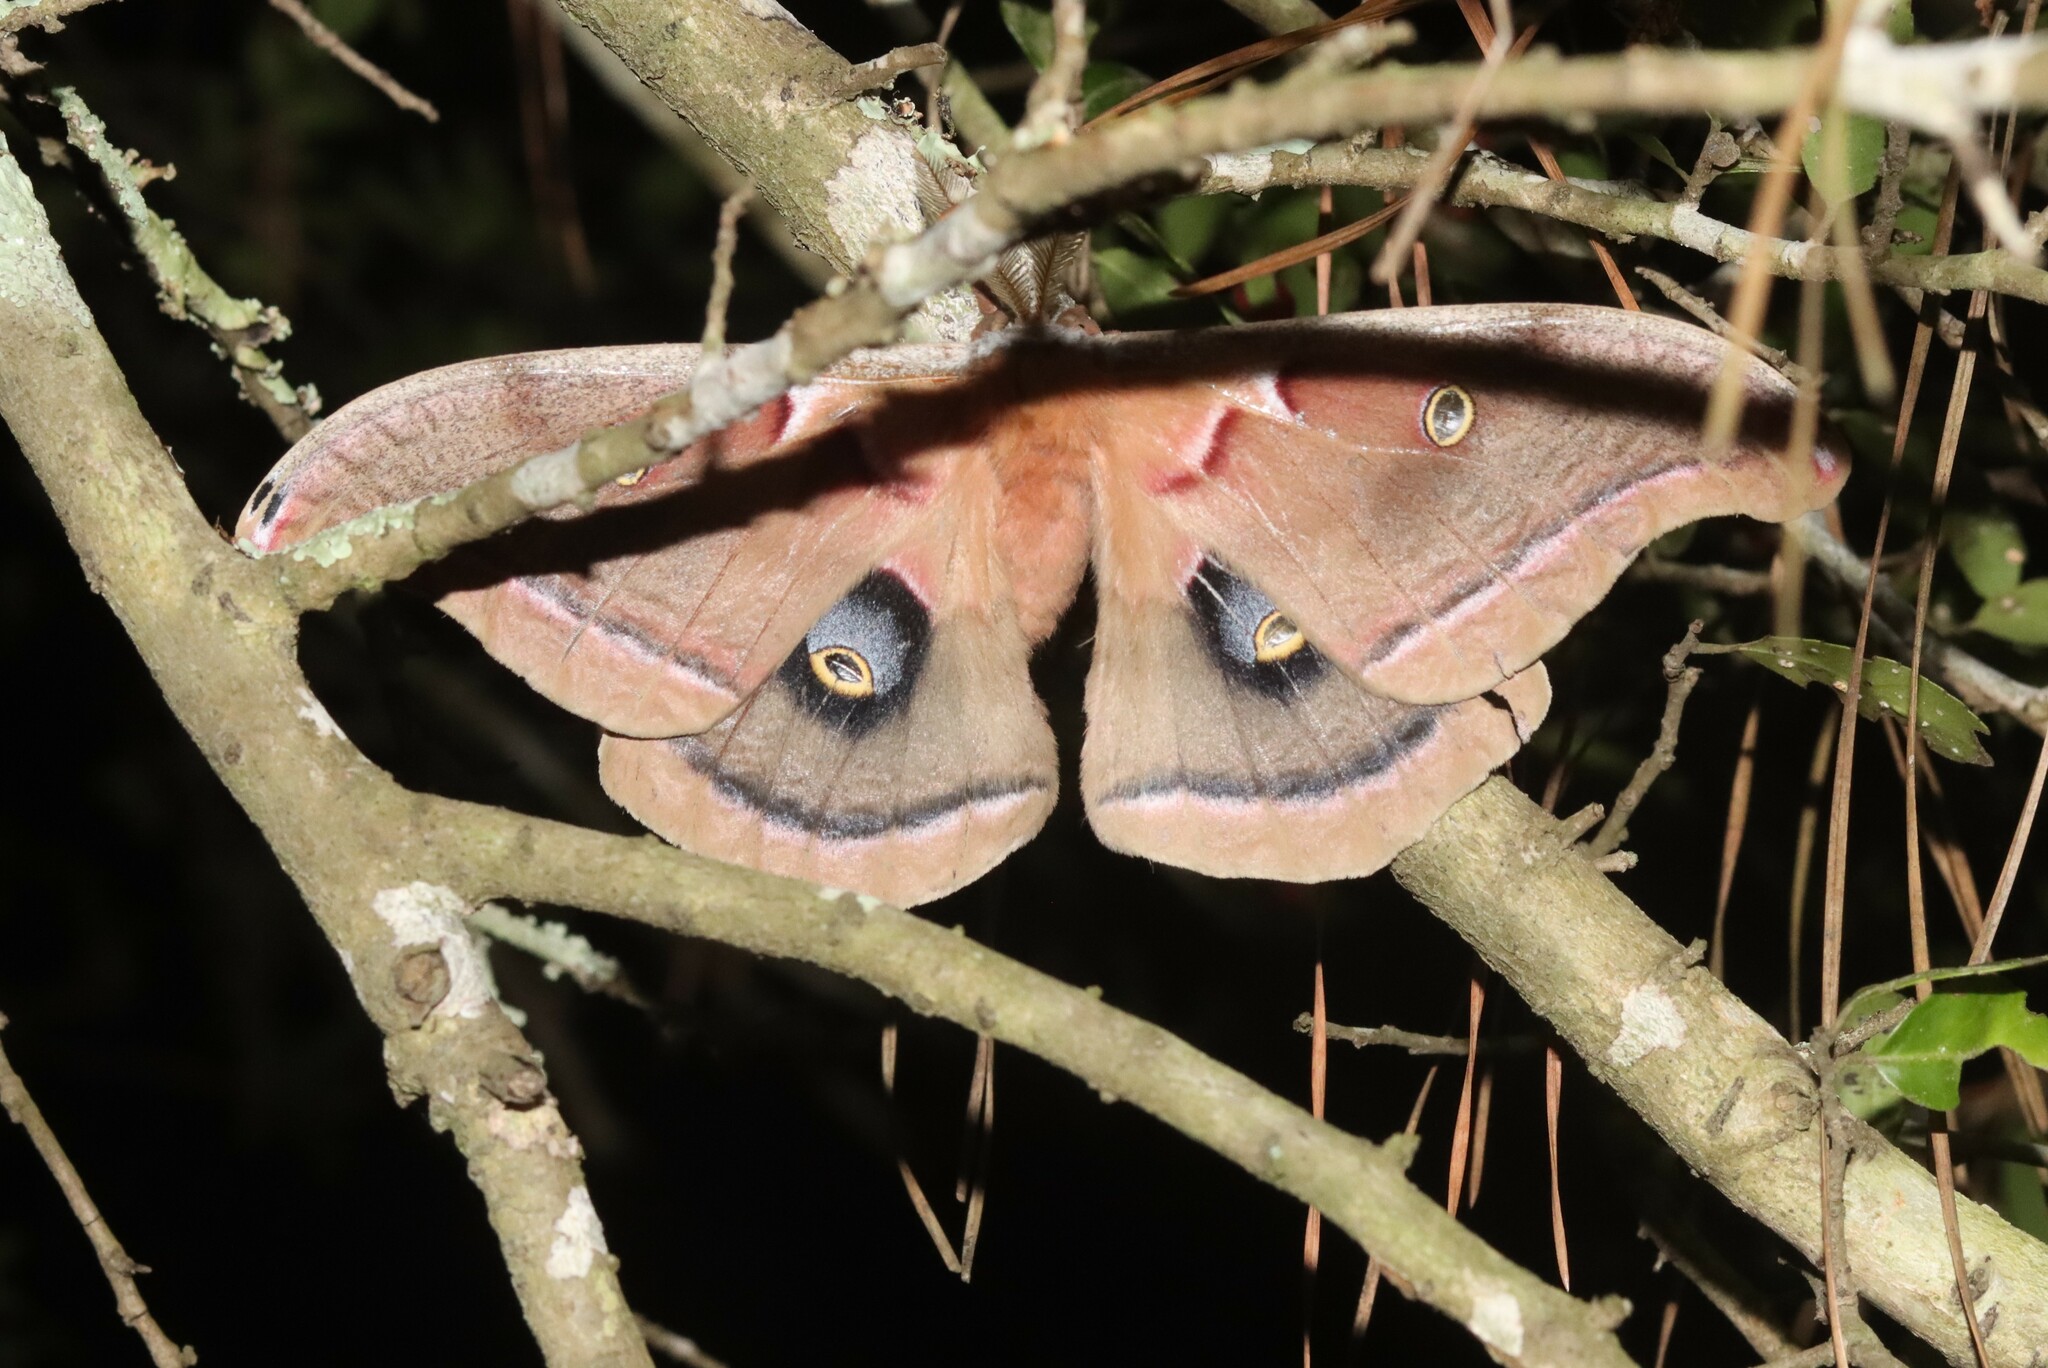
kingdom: Animalia
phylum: Arthropoda
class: Insecta
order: Lepidoptera
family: Saturniidae
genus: Antheraea
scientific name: Antheraea polyphemus
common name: Polyphemus moth
